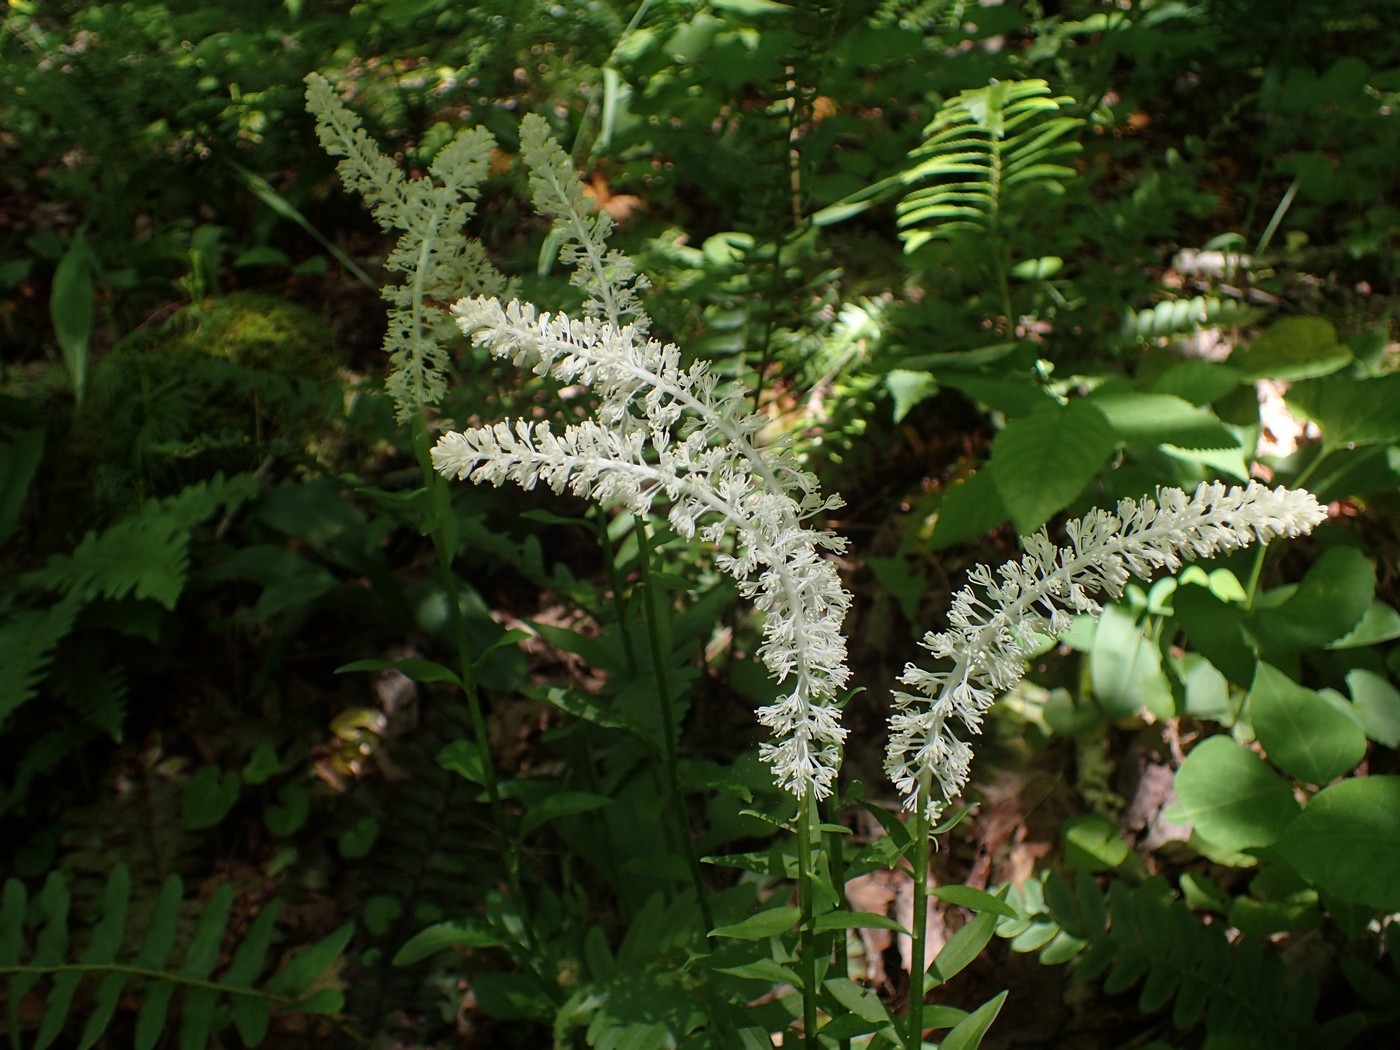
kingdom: Plantae
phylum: Tracheophyta
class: Liliopsida
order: Liliales
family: Melanthiaceae
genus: Chamaelirium
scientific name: Chamaelirium luteum
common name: Fairy-wand
